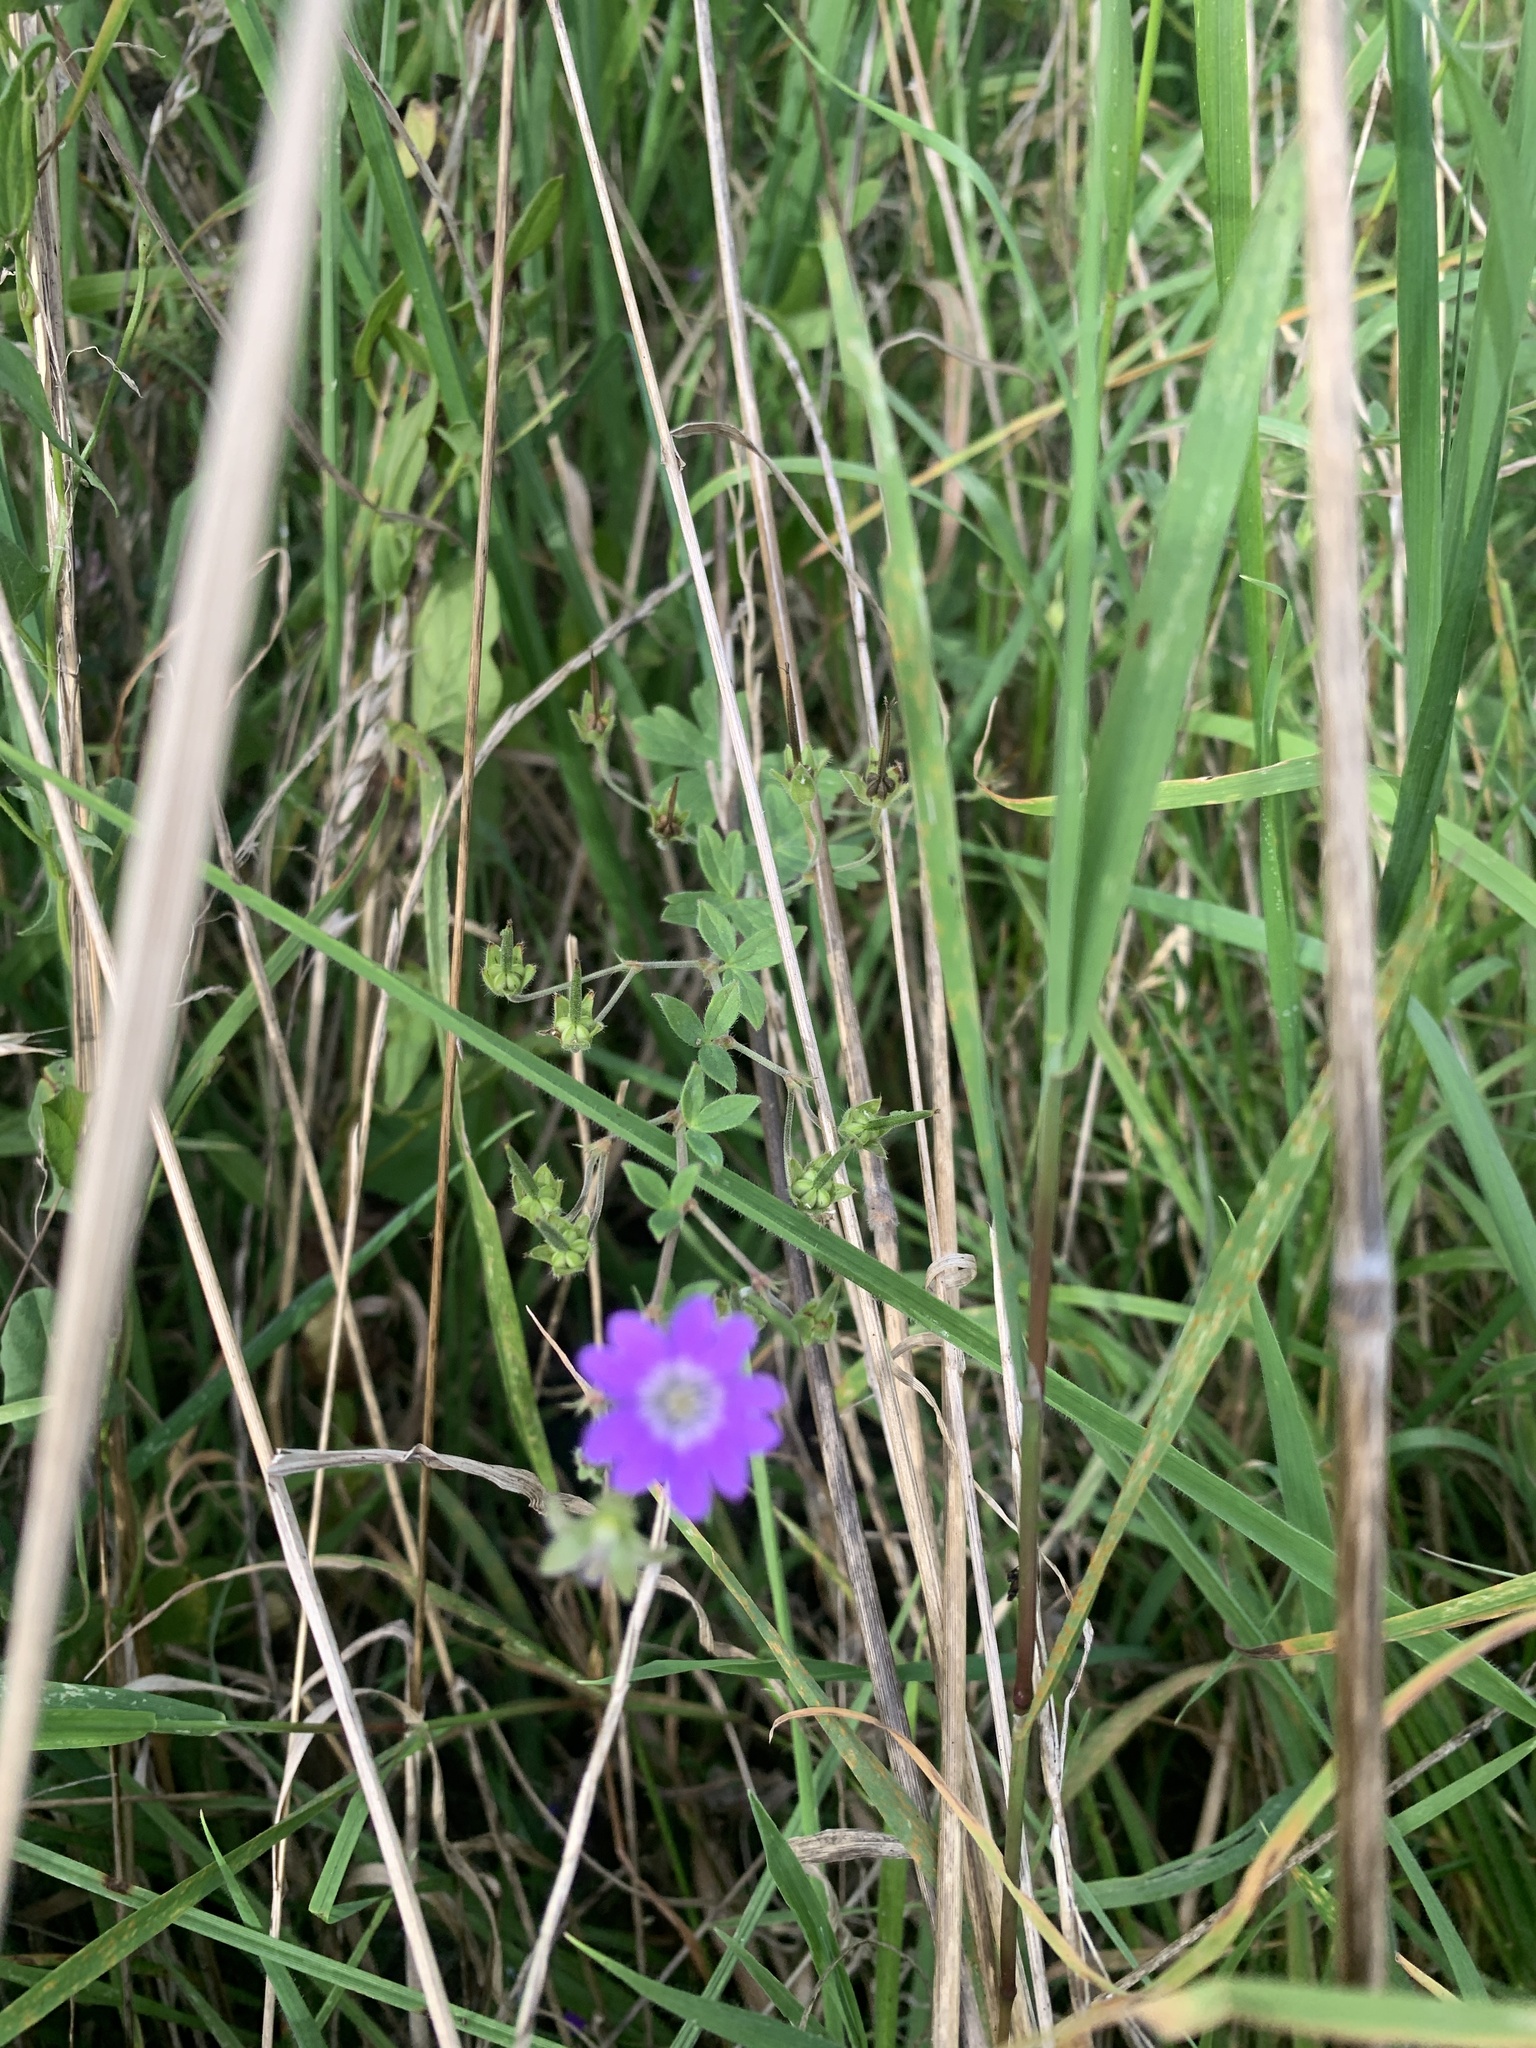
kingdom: Plantae
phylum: Tracheophyta
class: Magnoliopsida
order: Geraniales
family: Geraniaceae
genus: Geranium
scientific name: Geranium pyrenaicum
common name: Hedgerow crane's-bill
